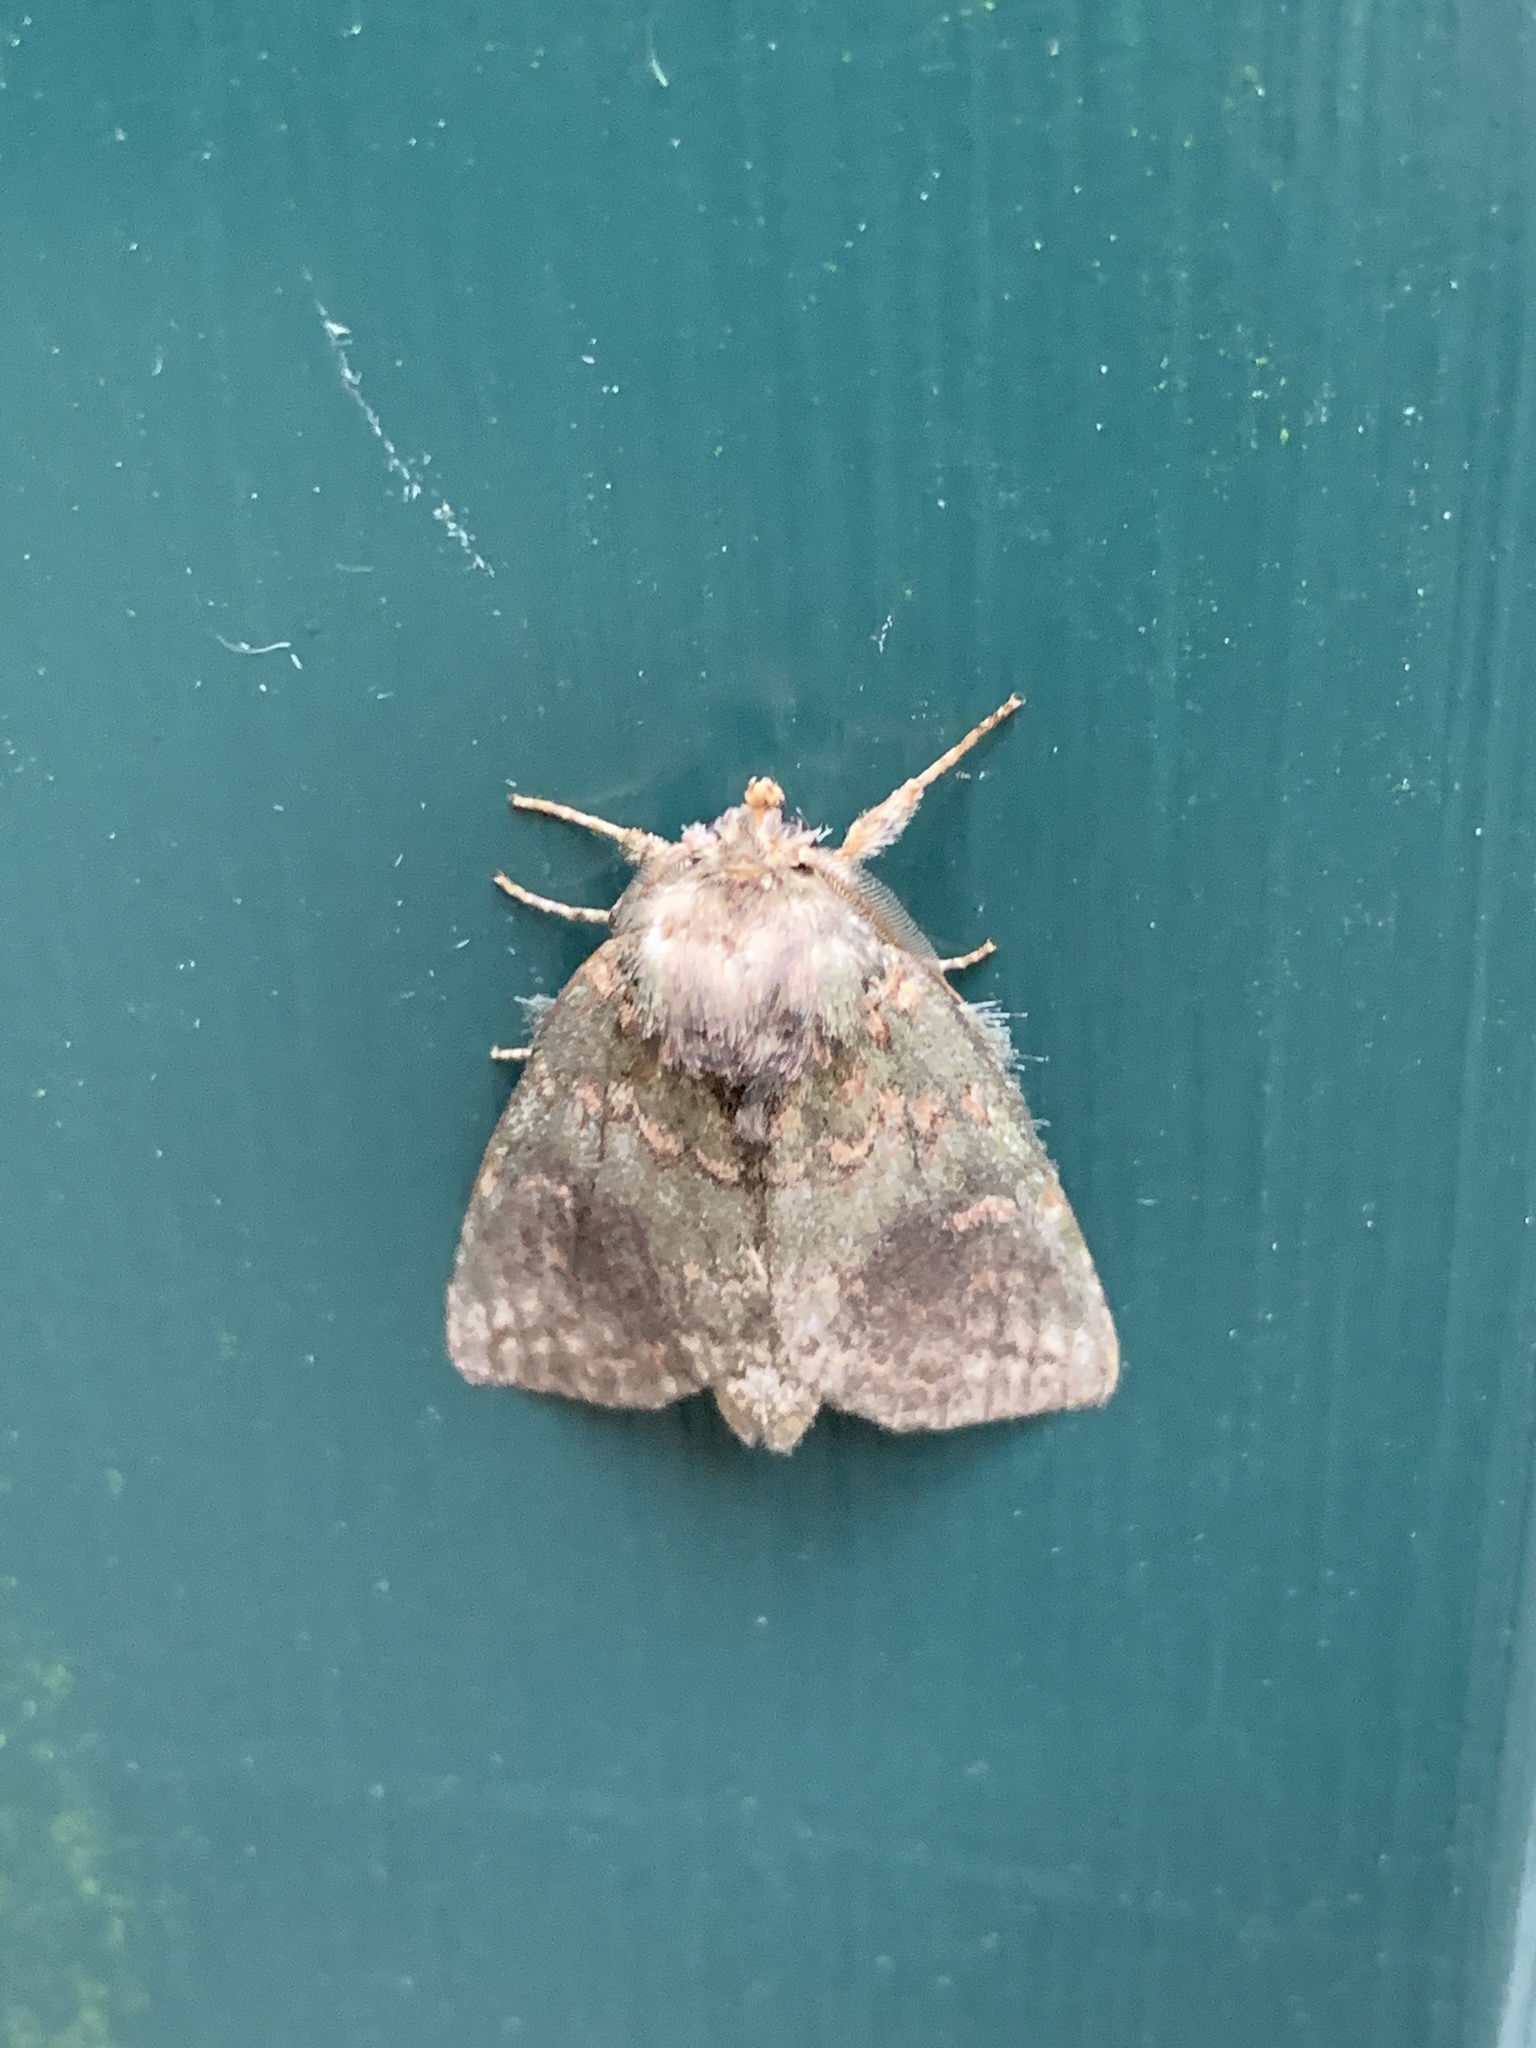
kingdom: Animalia
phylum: Arthropoda
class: Insecta
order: Lepidoptera
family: Notodontidae
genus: Disphragis
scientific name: Disphragis Cecrita biundata
